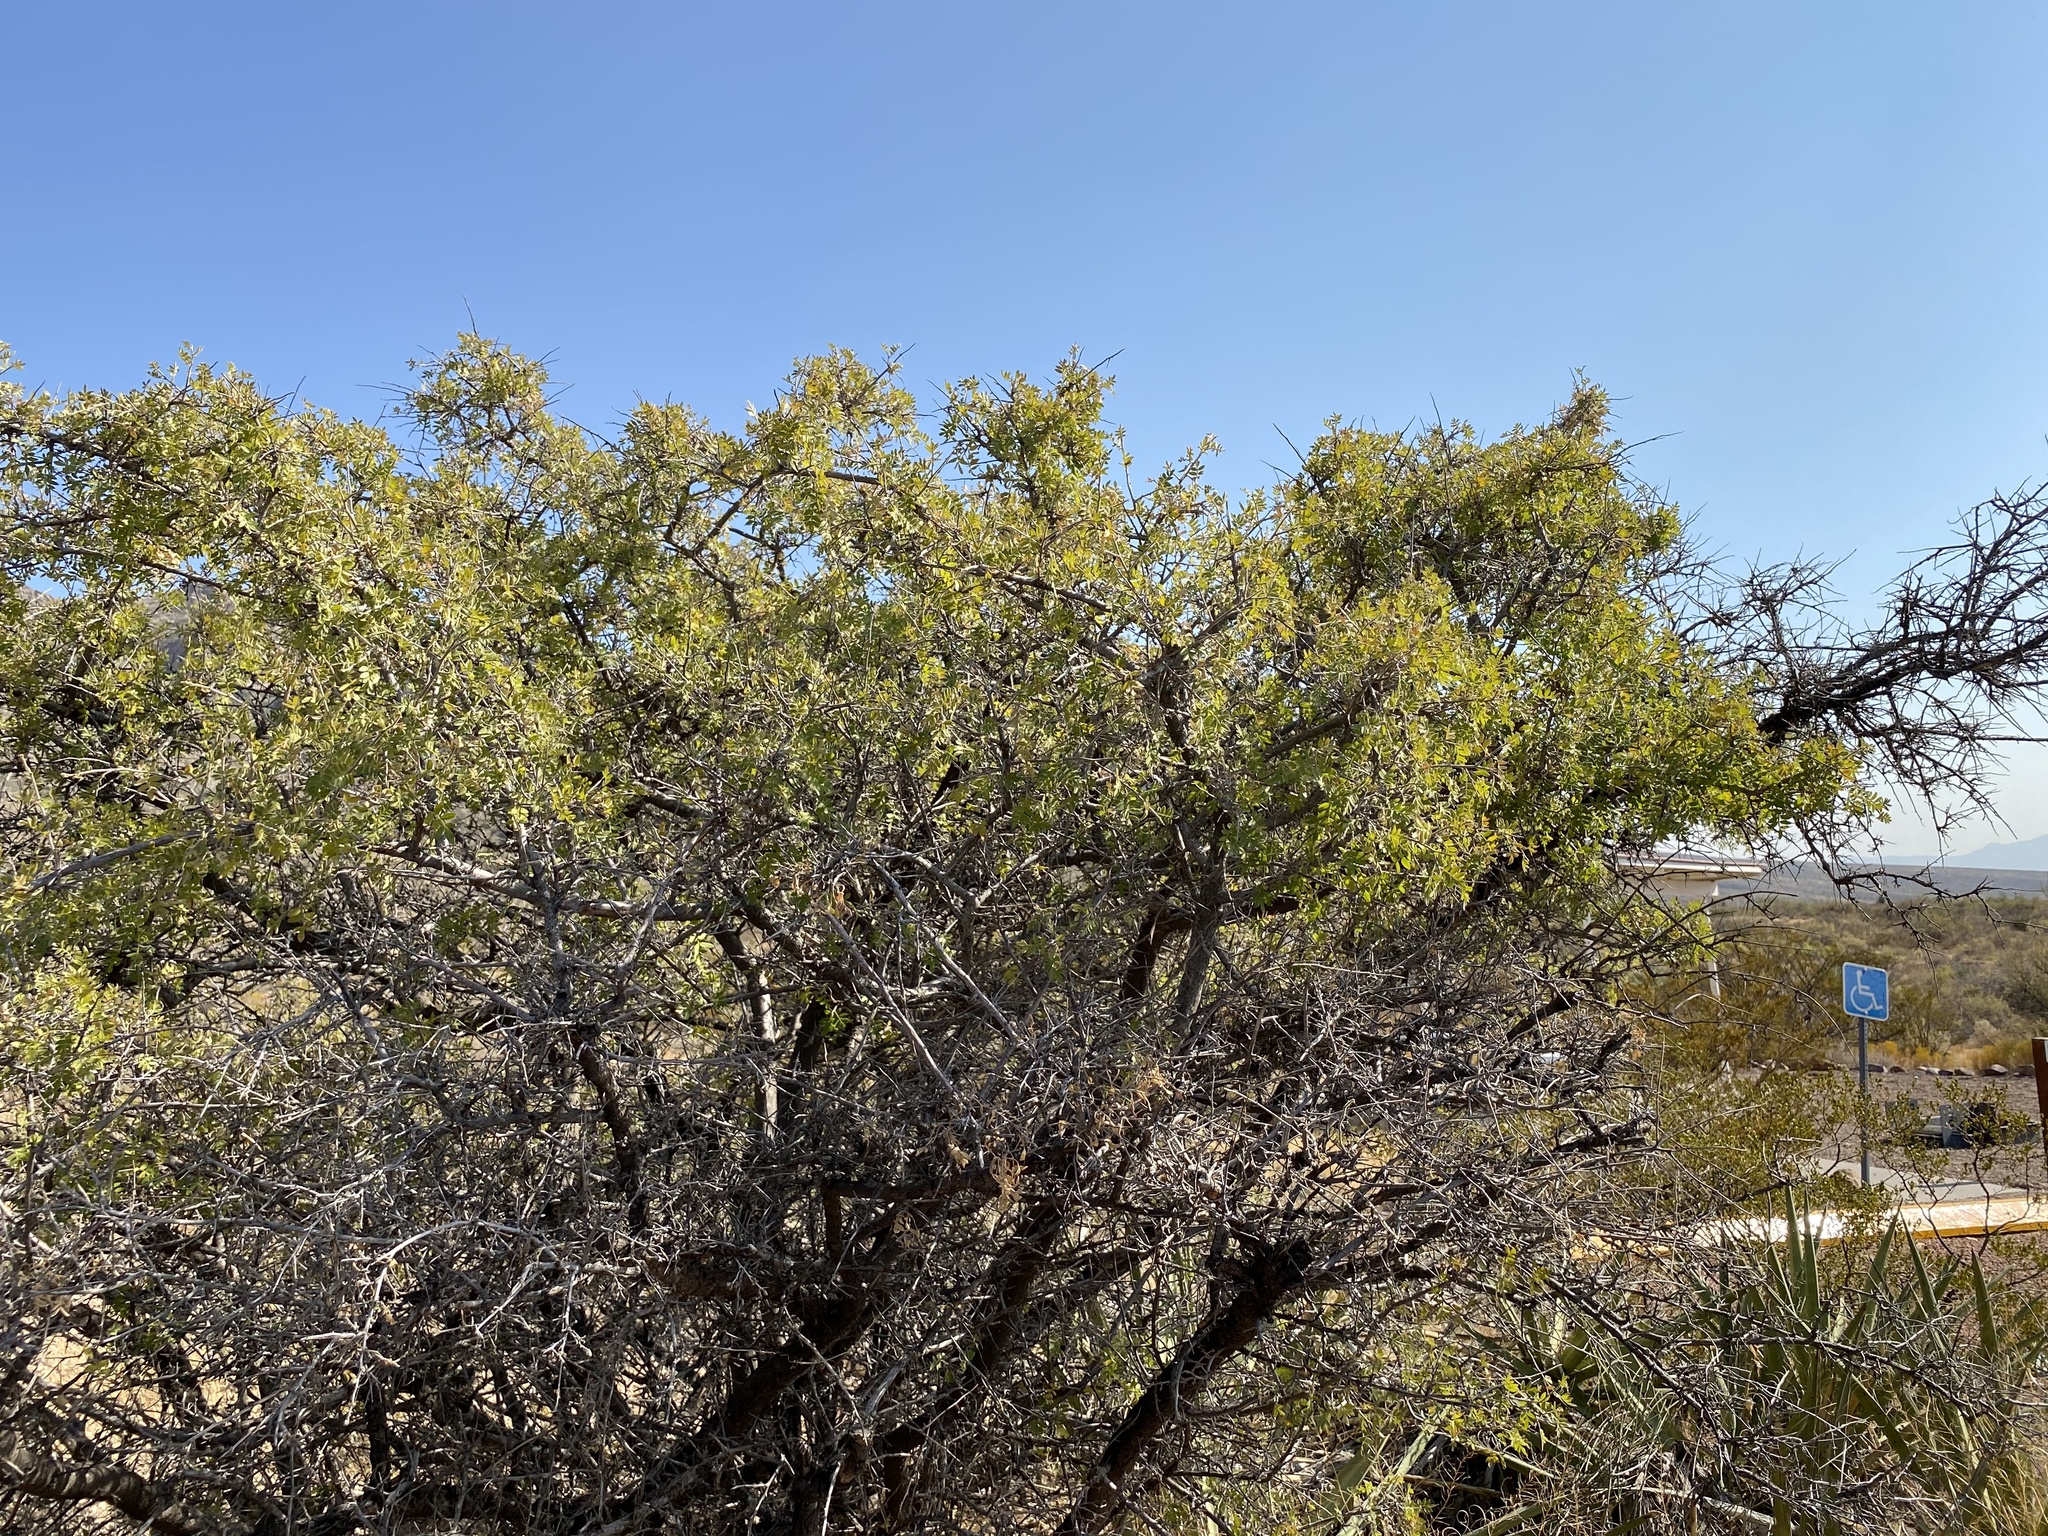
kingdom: Plantae
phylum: Tracheophyta
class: Magnoliopsida
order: Sapindales
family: Anacardiaceae
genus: Rhus
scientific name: Rhus microphylla
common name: Desert sumac
